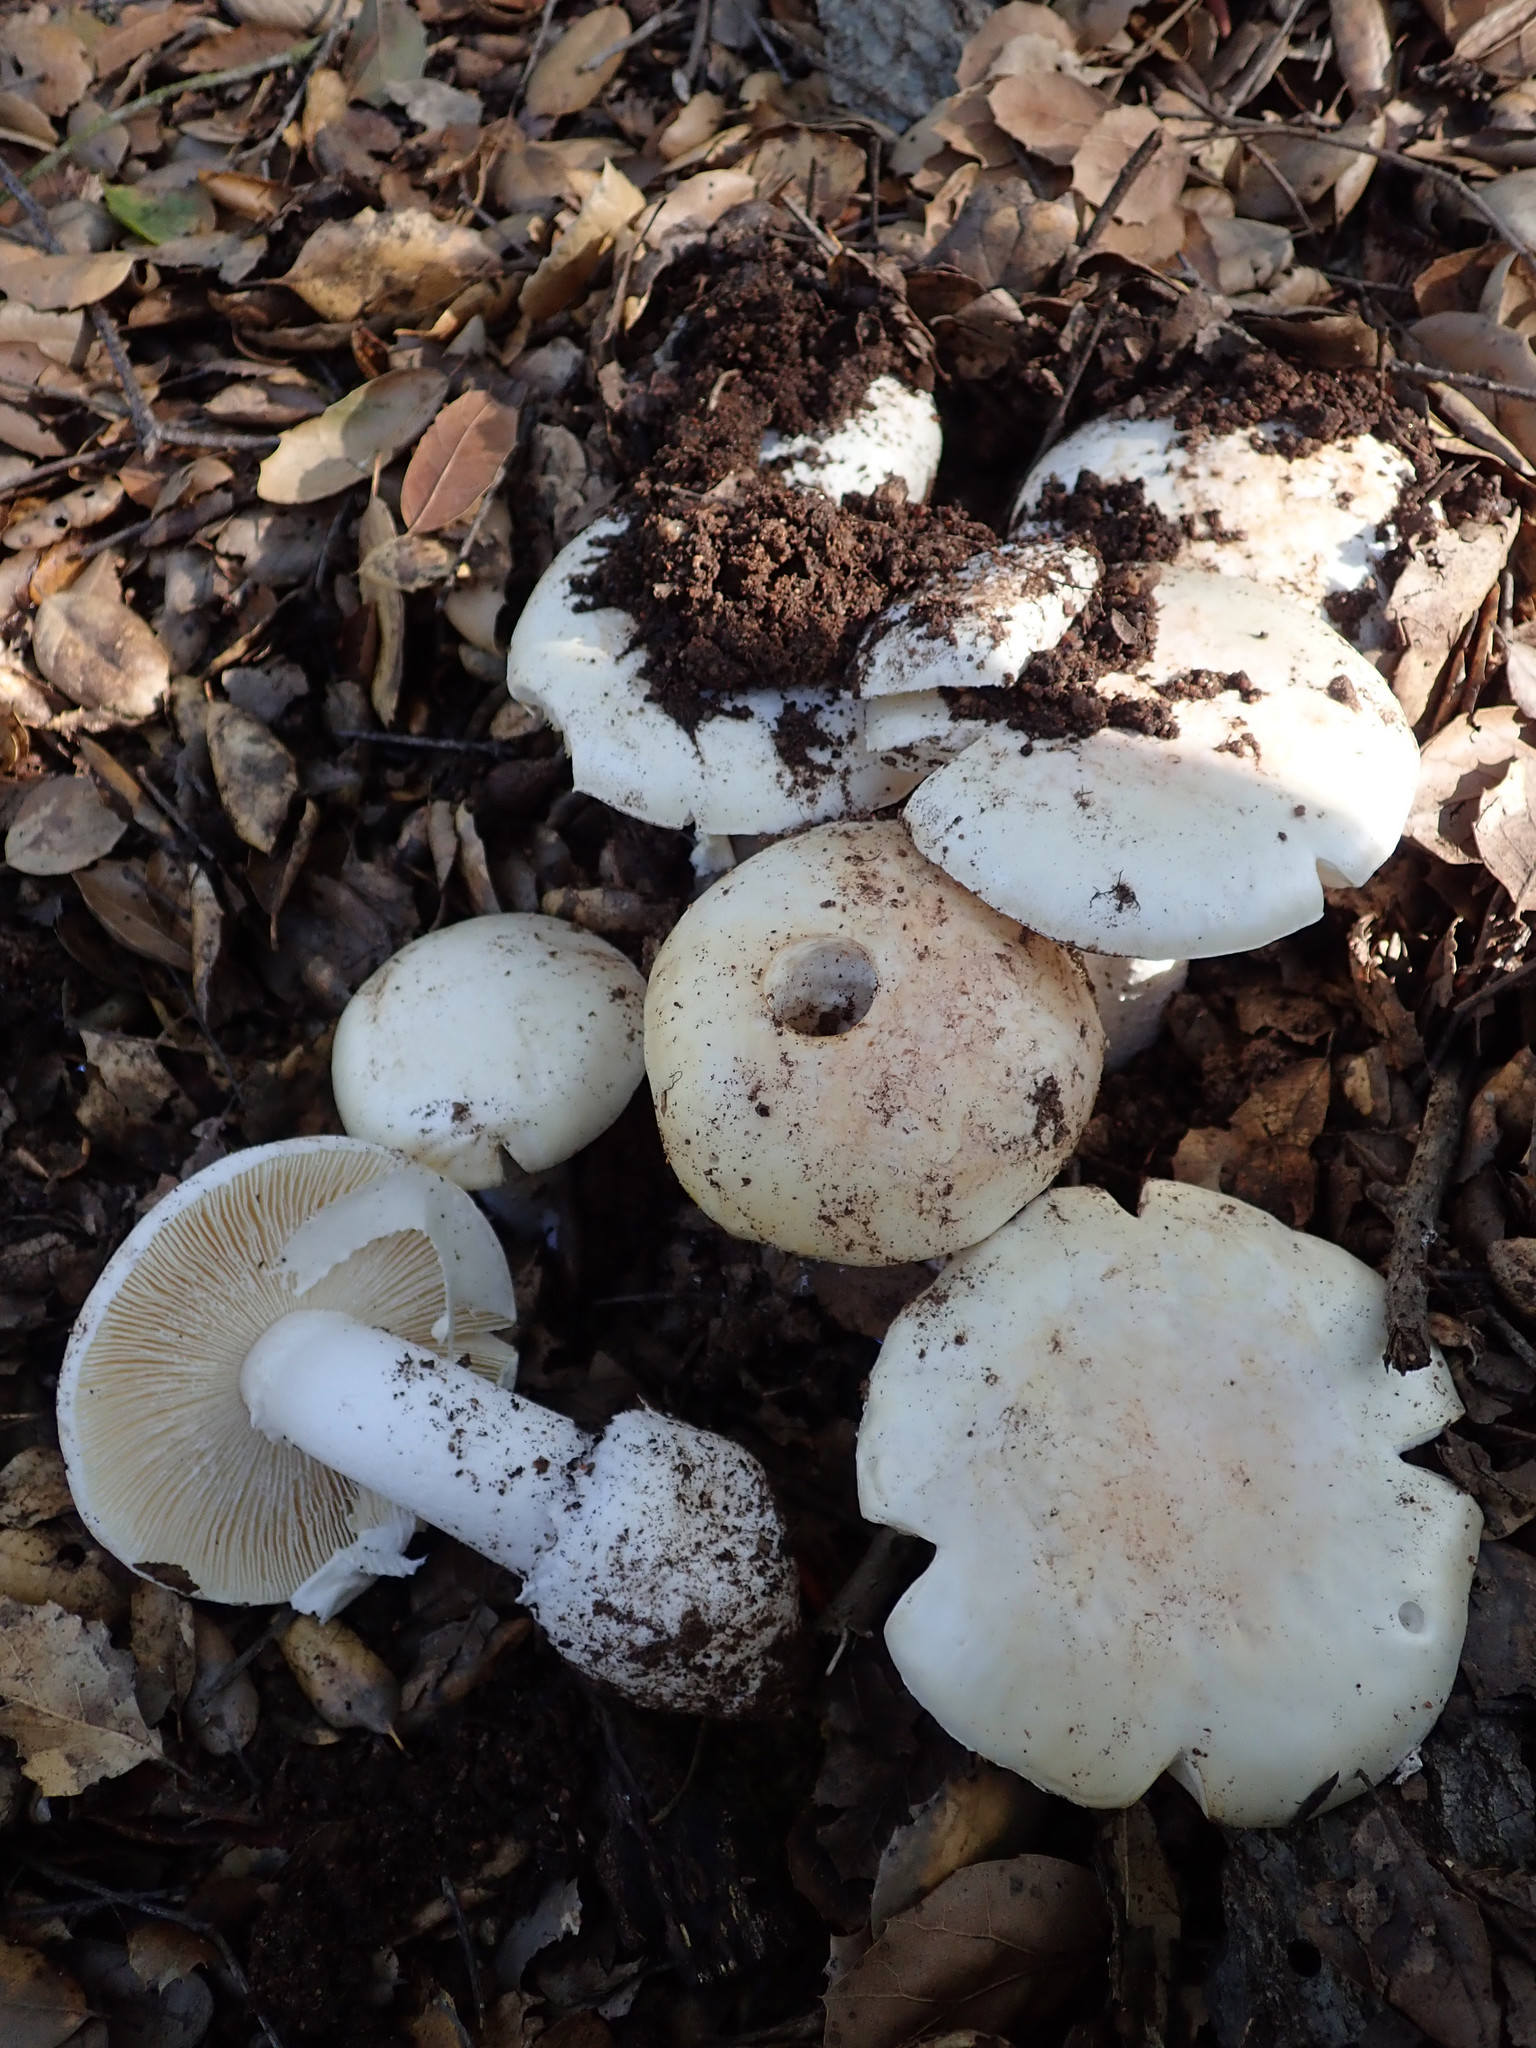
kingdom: Fungi
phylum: Basidiomycota
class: Agaricomycetes
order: Agaricales
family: Amanitaceae
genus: Amanita
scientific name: Amanita ocreata
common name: Western destroying angel
